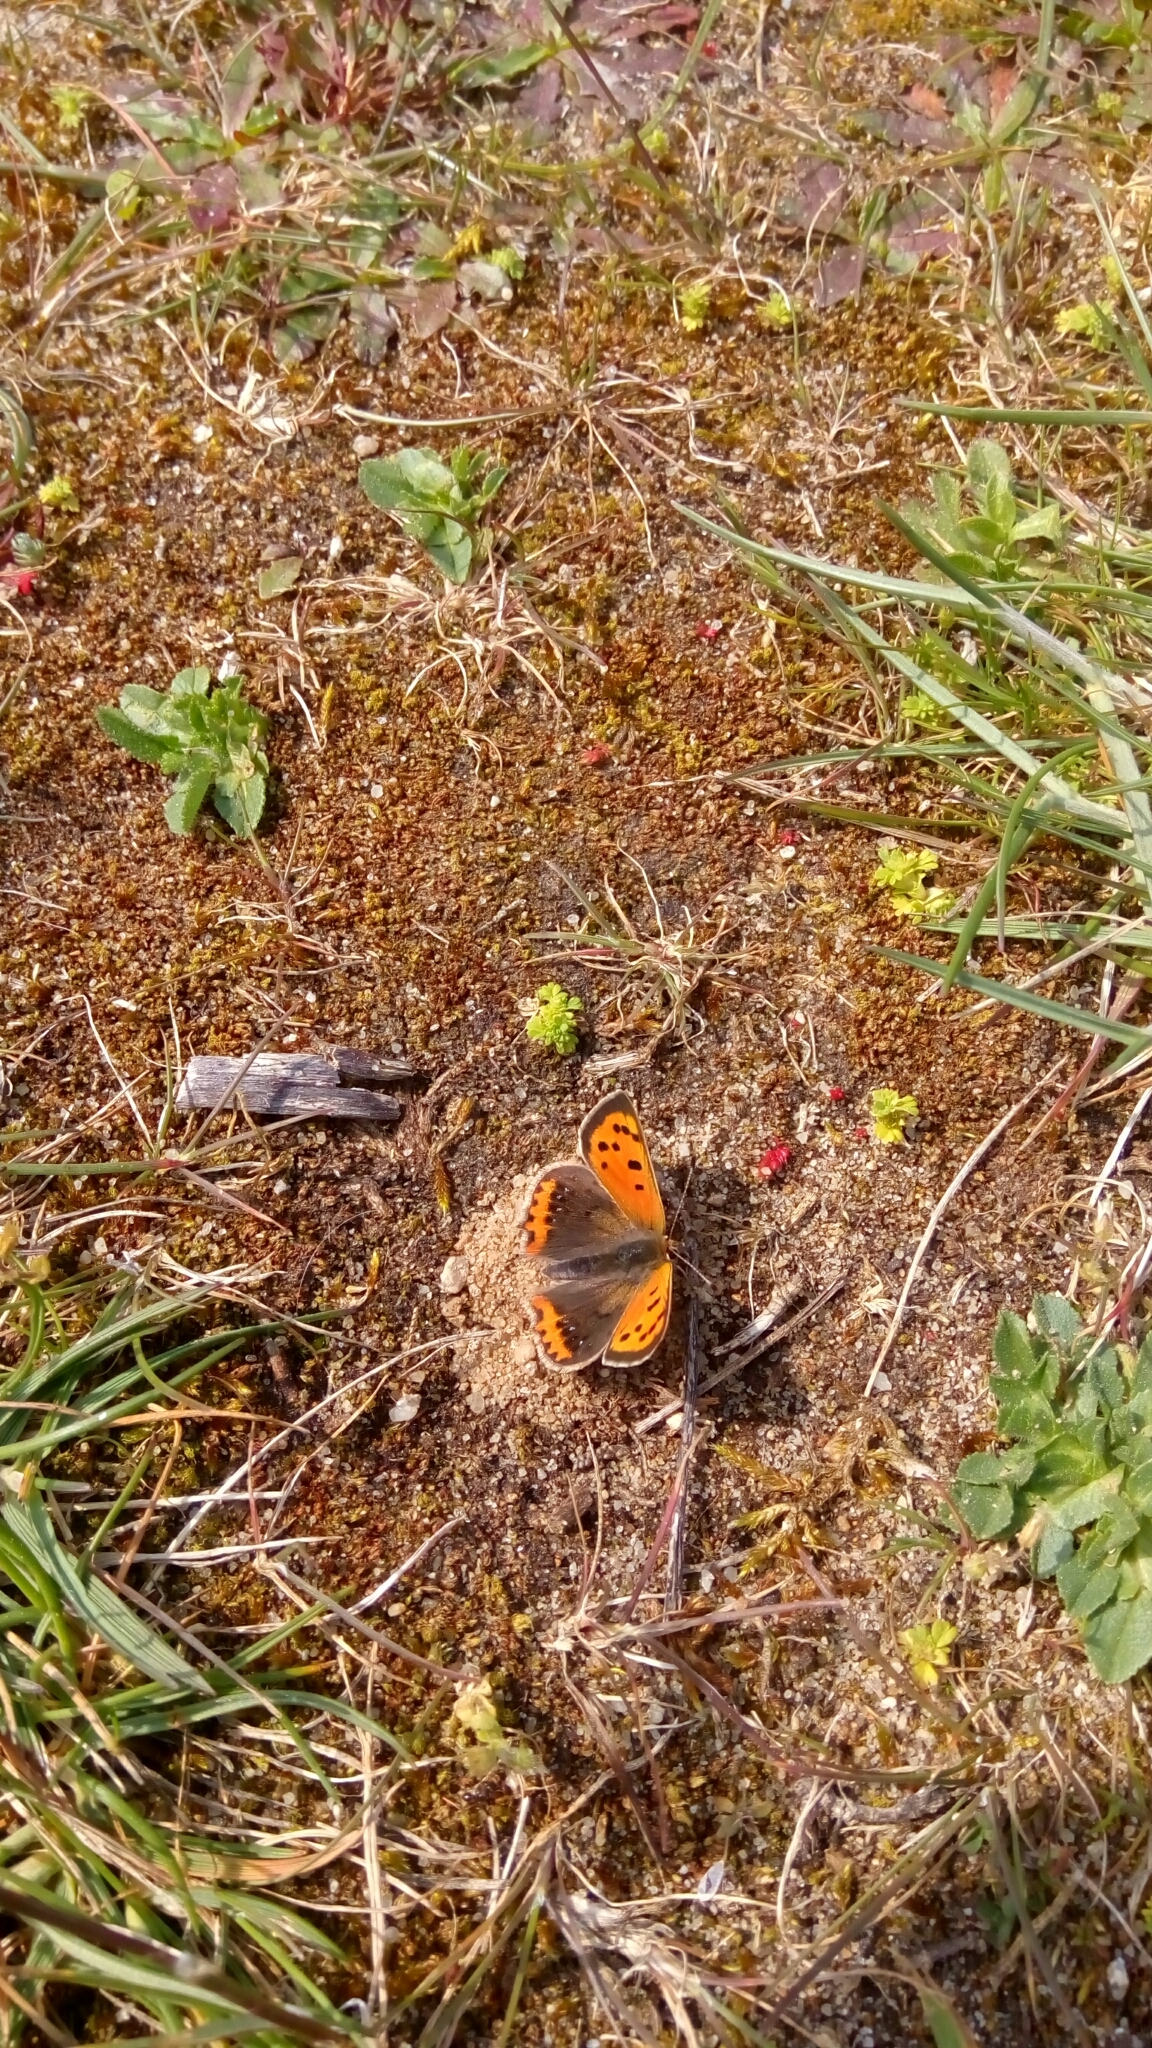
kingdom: Animalia
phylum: Arthropoda
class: Insecta
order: Lepidoptera
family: Lycaenidae
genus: Lycaena
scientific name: Lycaena phlaeas
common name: Small copper
